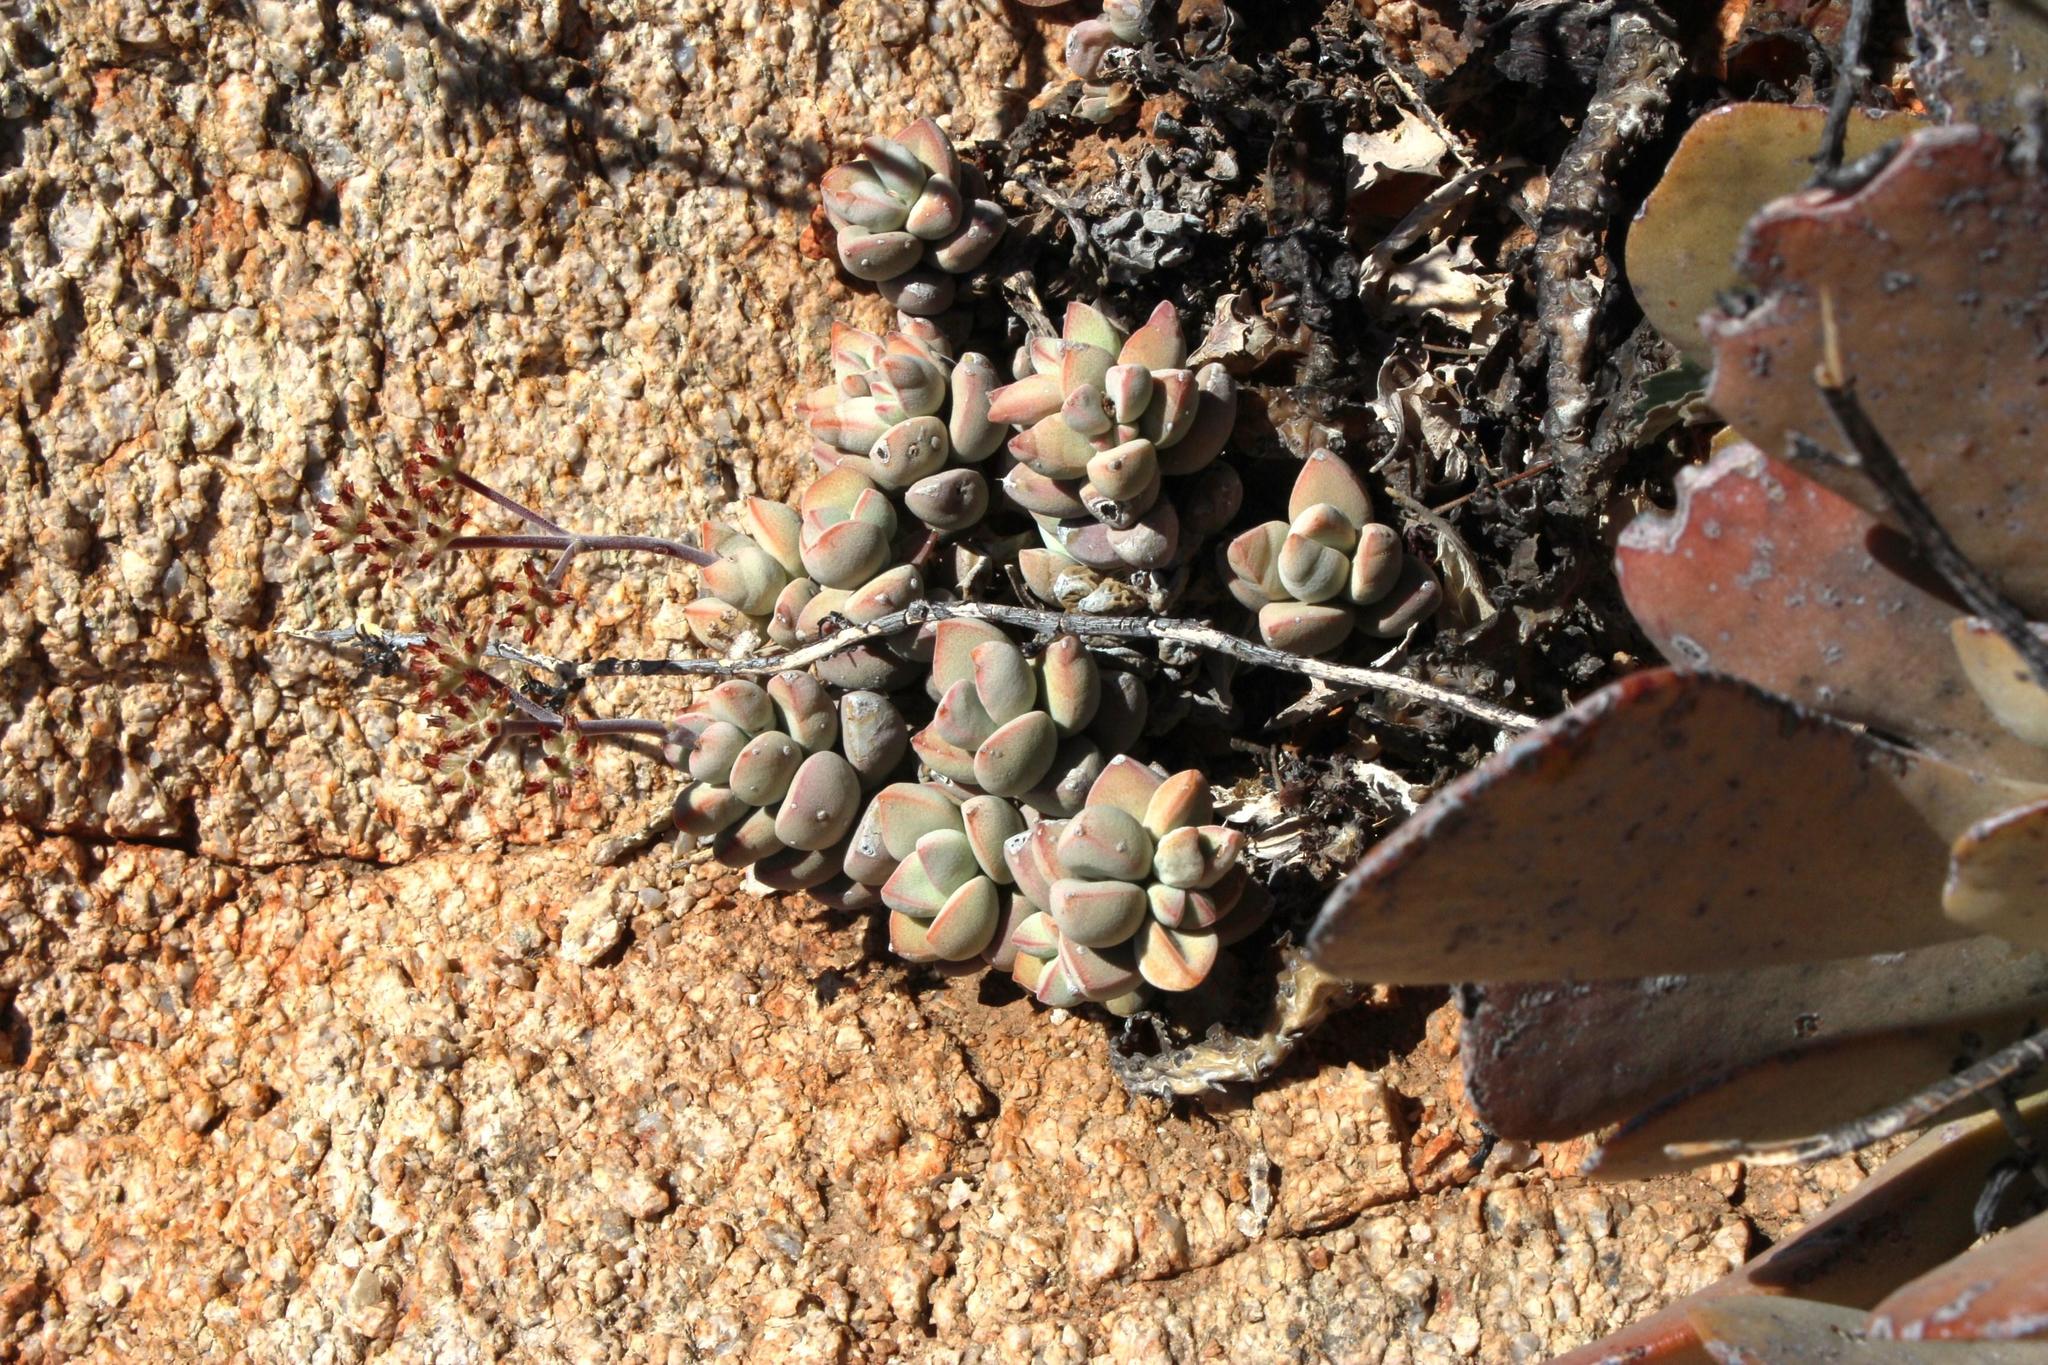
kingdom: Plantae
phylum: Tracheophyta
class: Magnoliopsida
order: Saxifragales
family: Crassulaceae
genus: Crassula
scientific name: Crassula sericea
